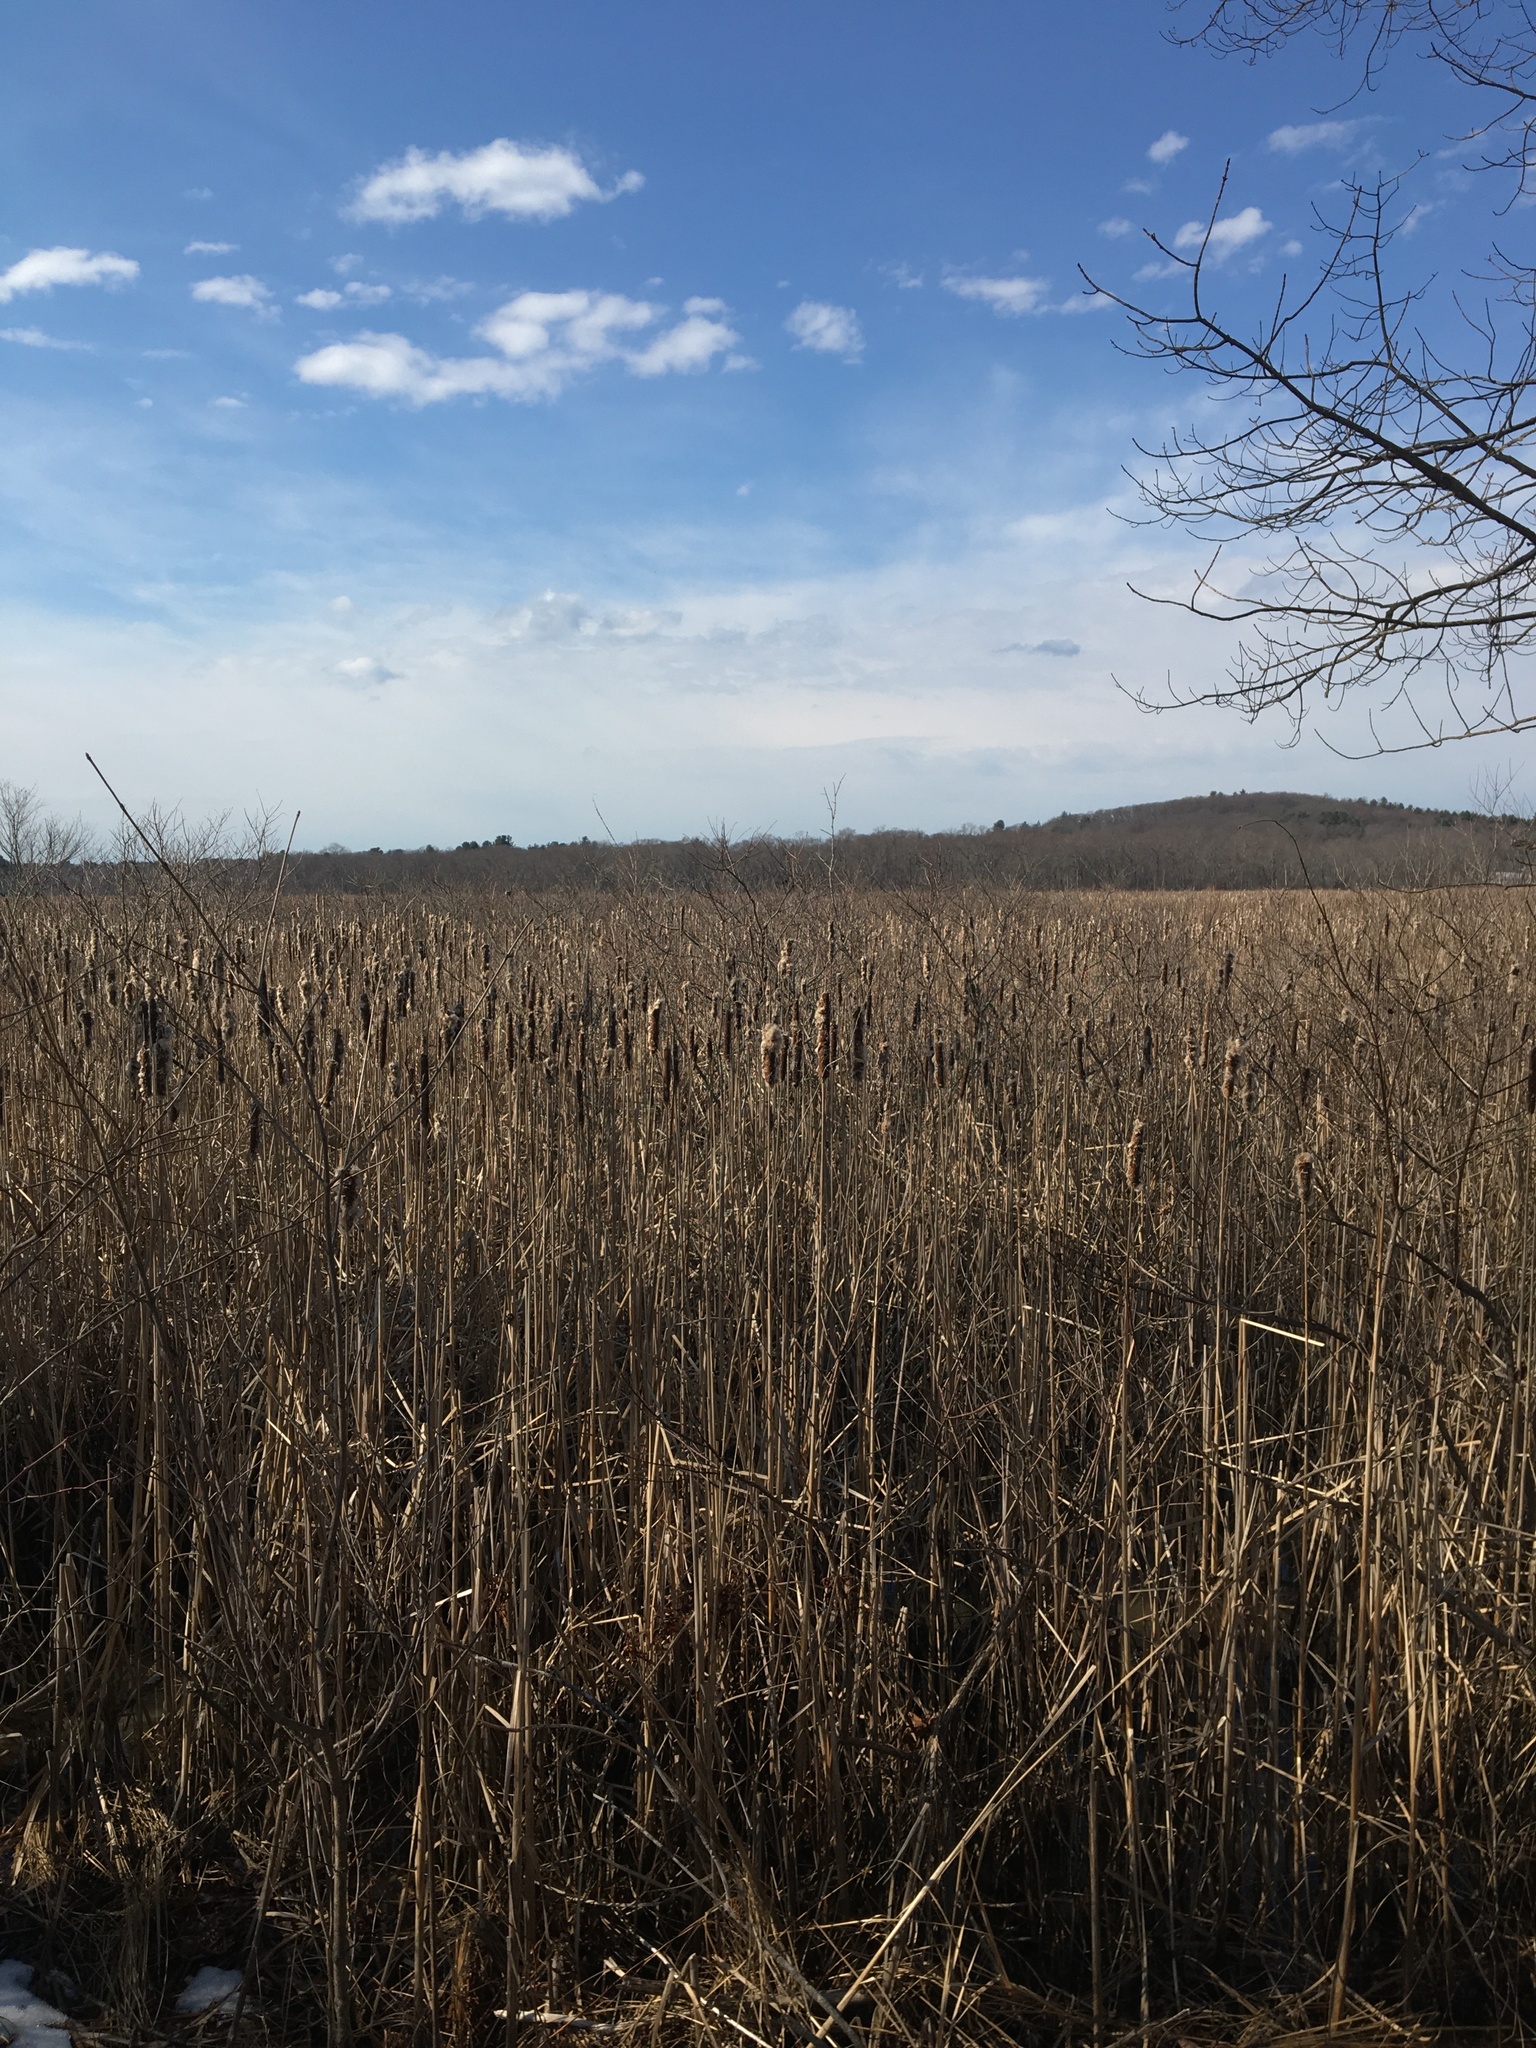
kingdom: Plantae
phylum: Tracheophyta
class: Liliopsida
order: Poales
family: Typhaceae
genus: Typha
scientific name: Typha
